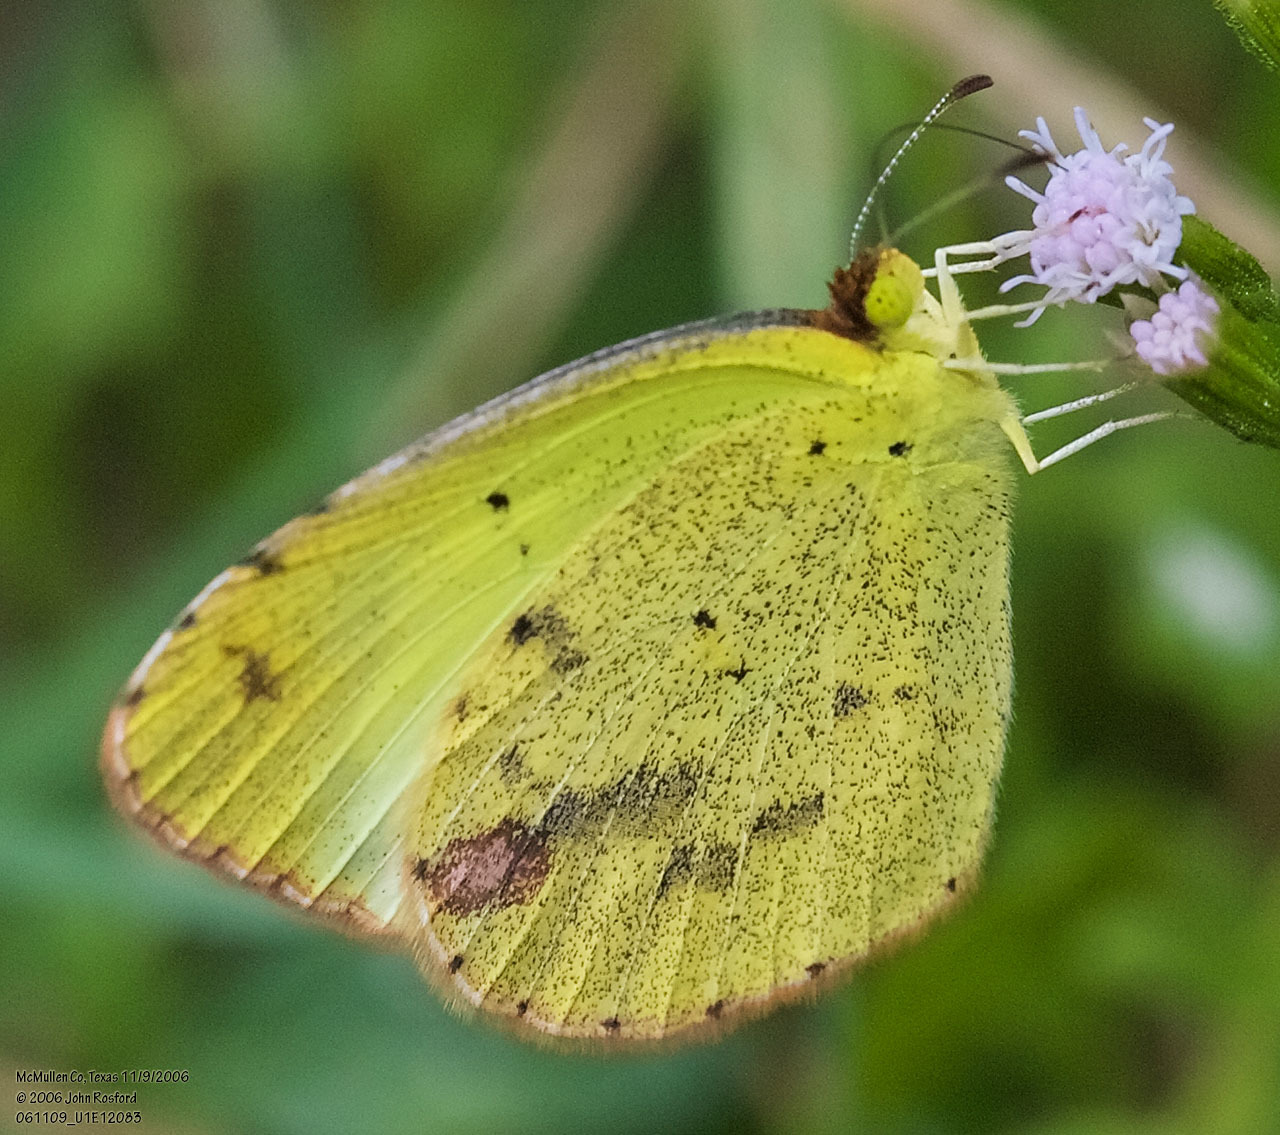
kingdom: Animalia
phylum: Arthropoda
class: Insecta
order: Lepidoptera
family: Pieridae
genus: Pyrisitia
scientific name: Pyrisitia lisa
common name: Little yellow
